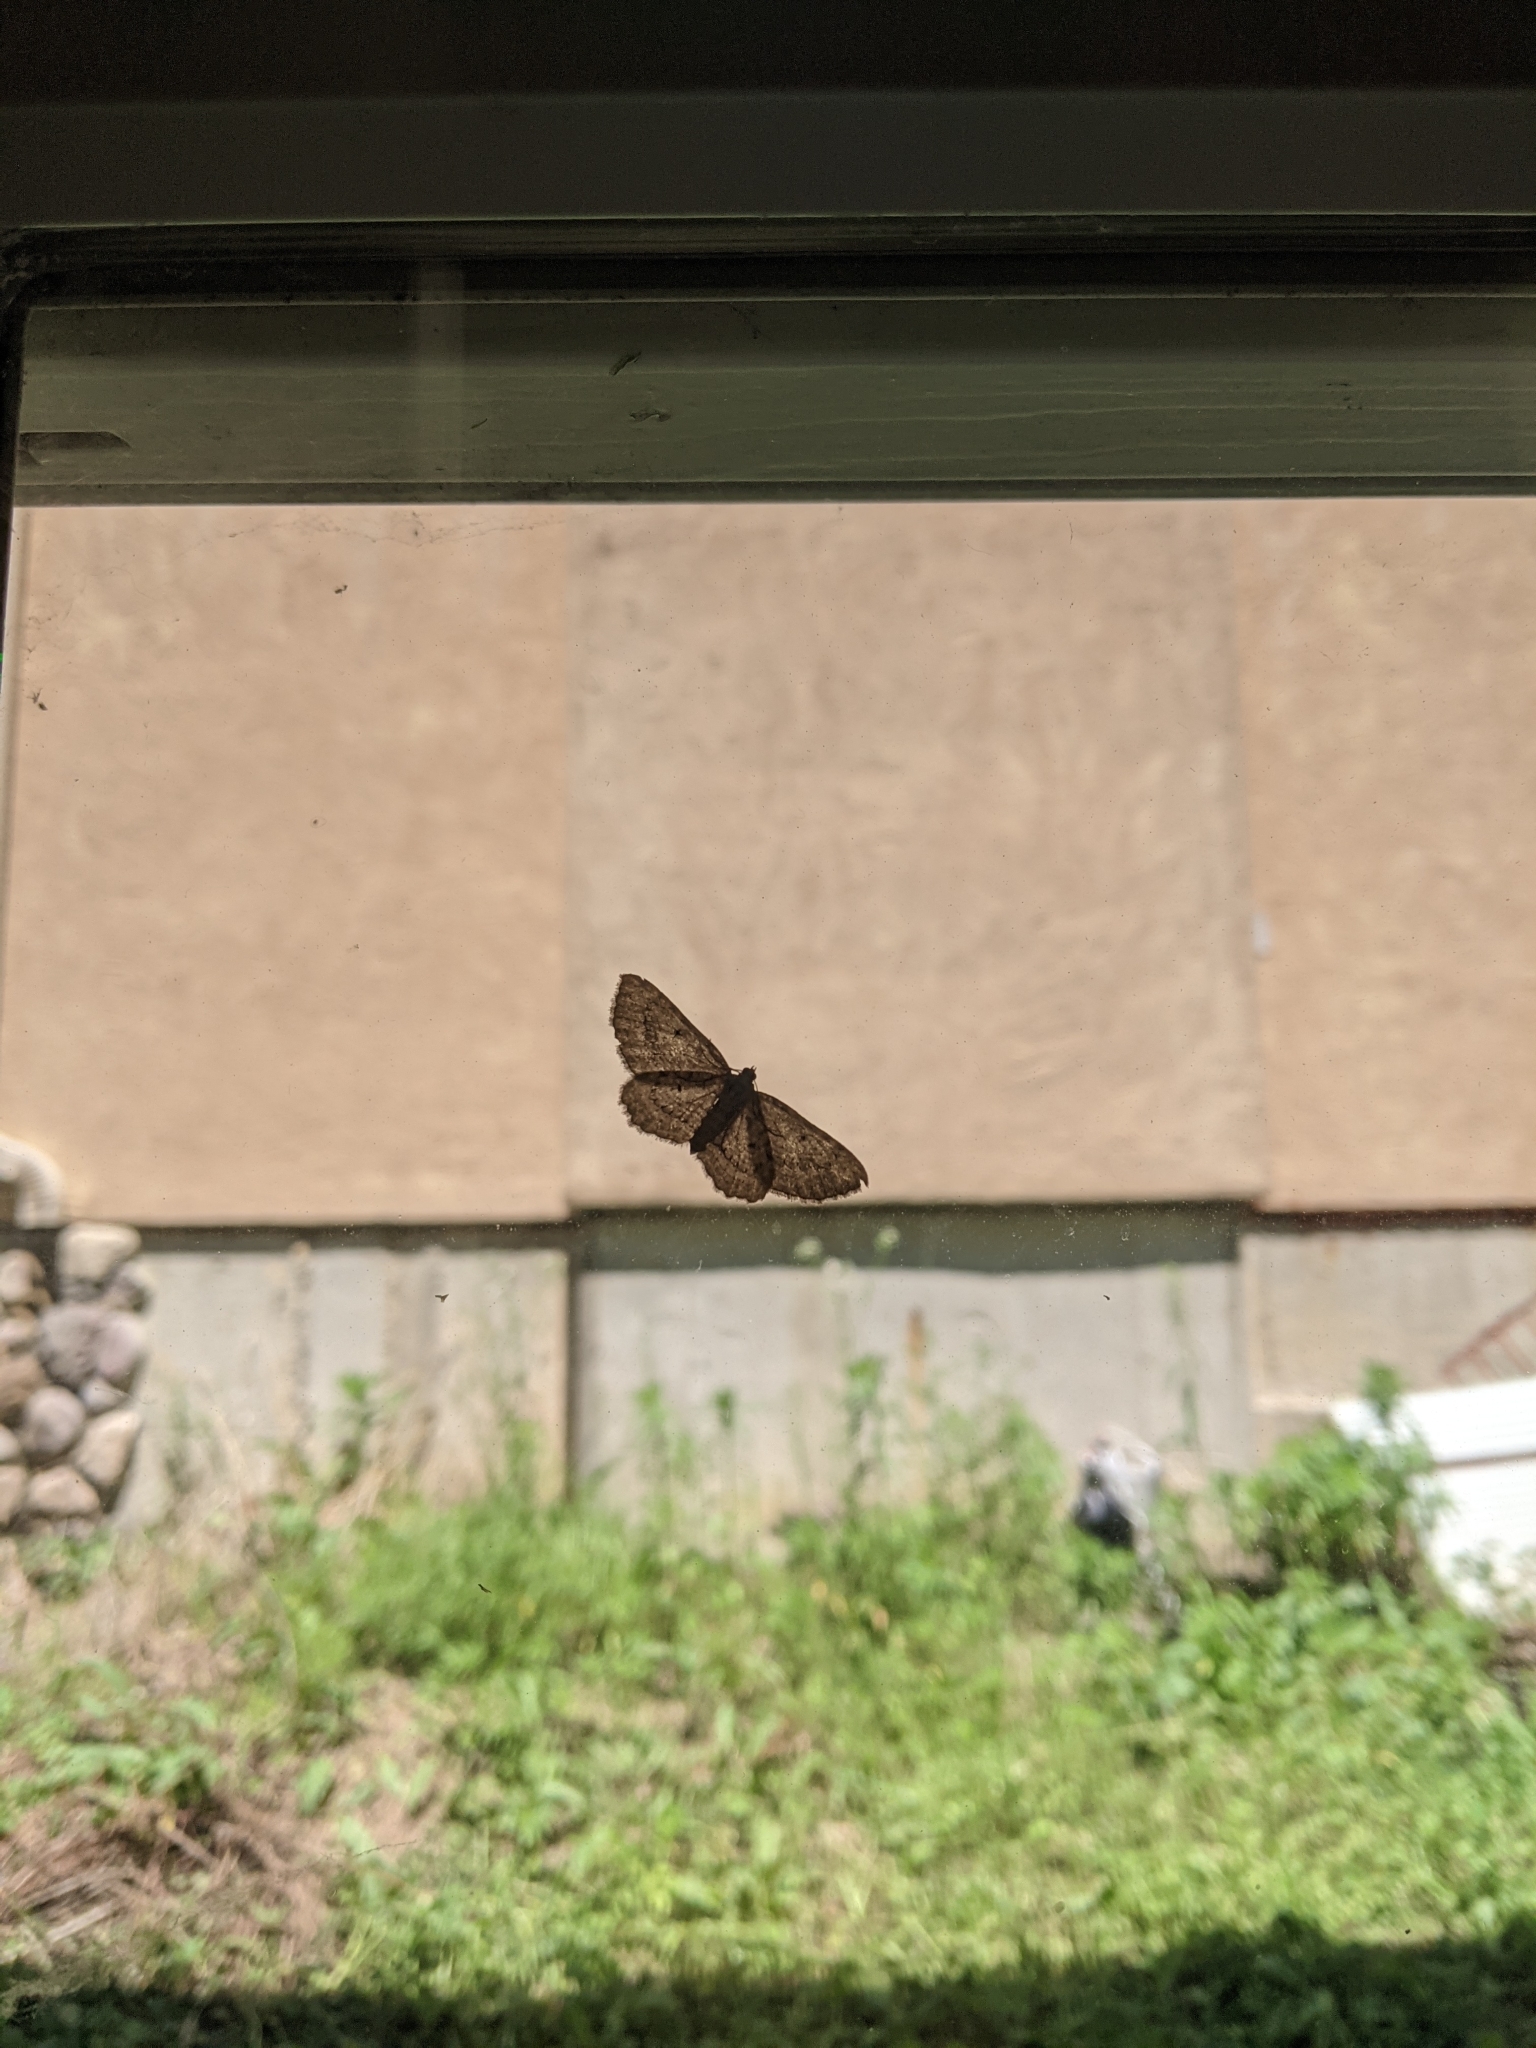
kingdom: Animalia
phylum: Arthropoda
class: Insecta
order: Lepidoptera
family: Geometridae
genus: Protoboarmia
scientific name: Protoboarmia porcelaria
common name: Porcelain gray
